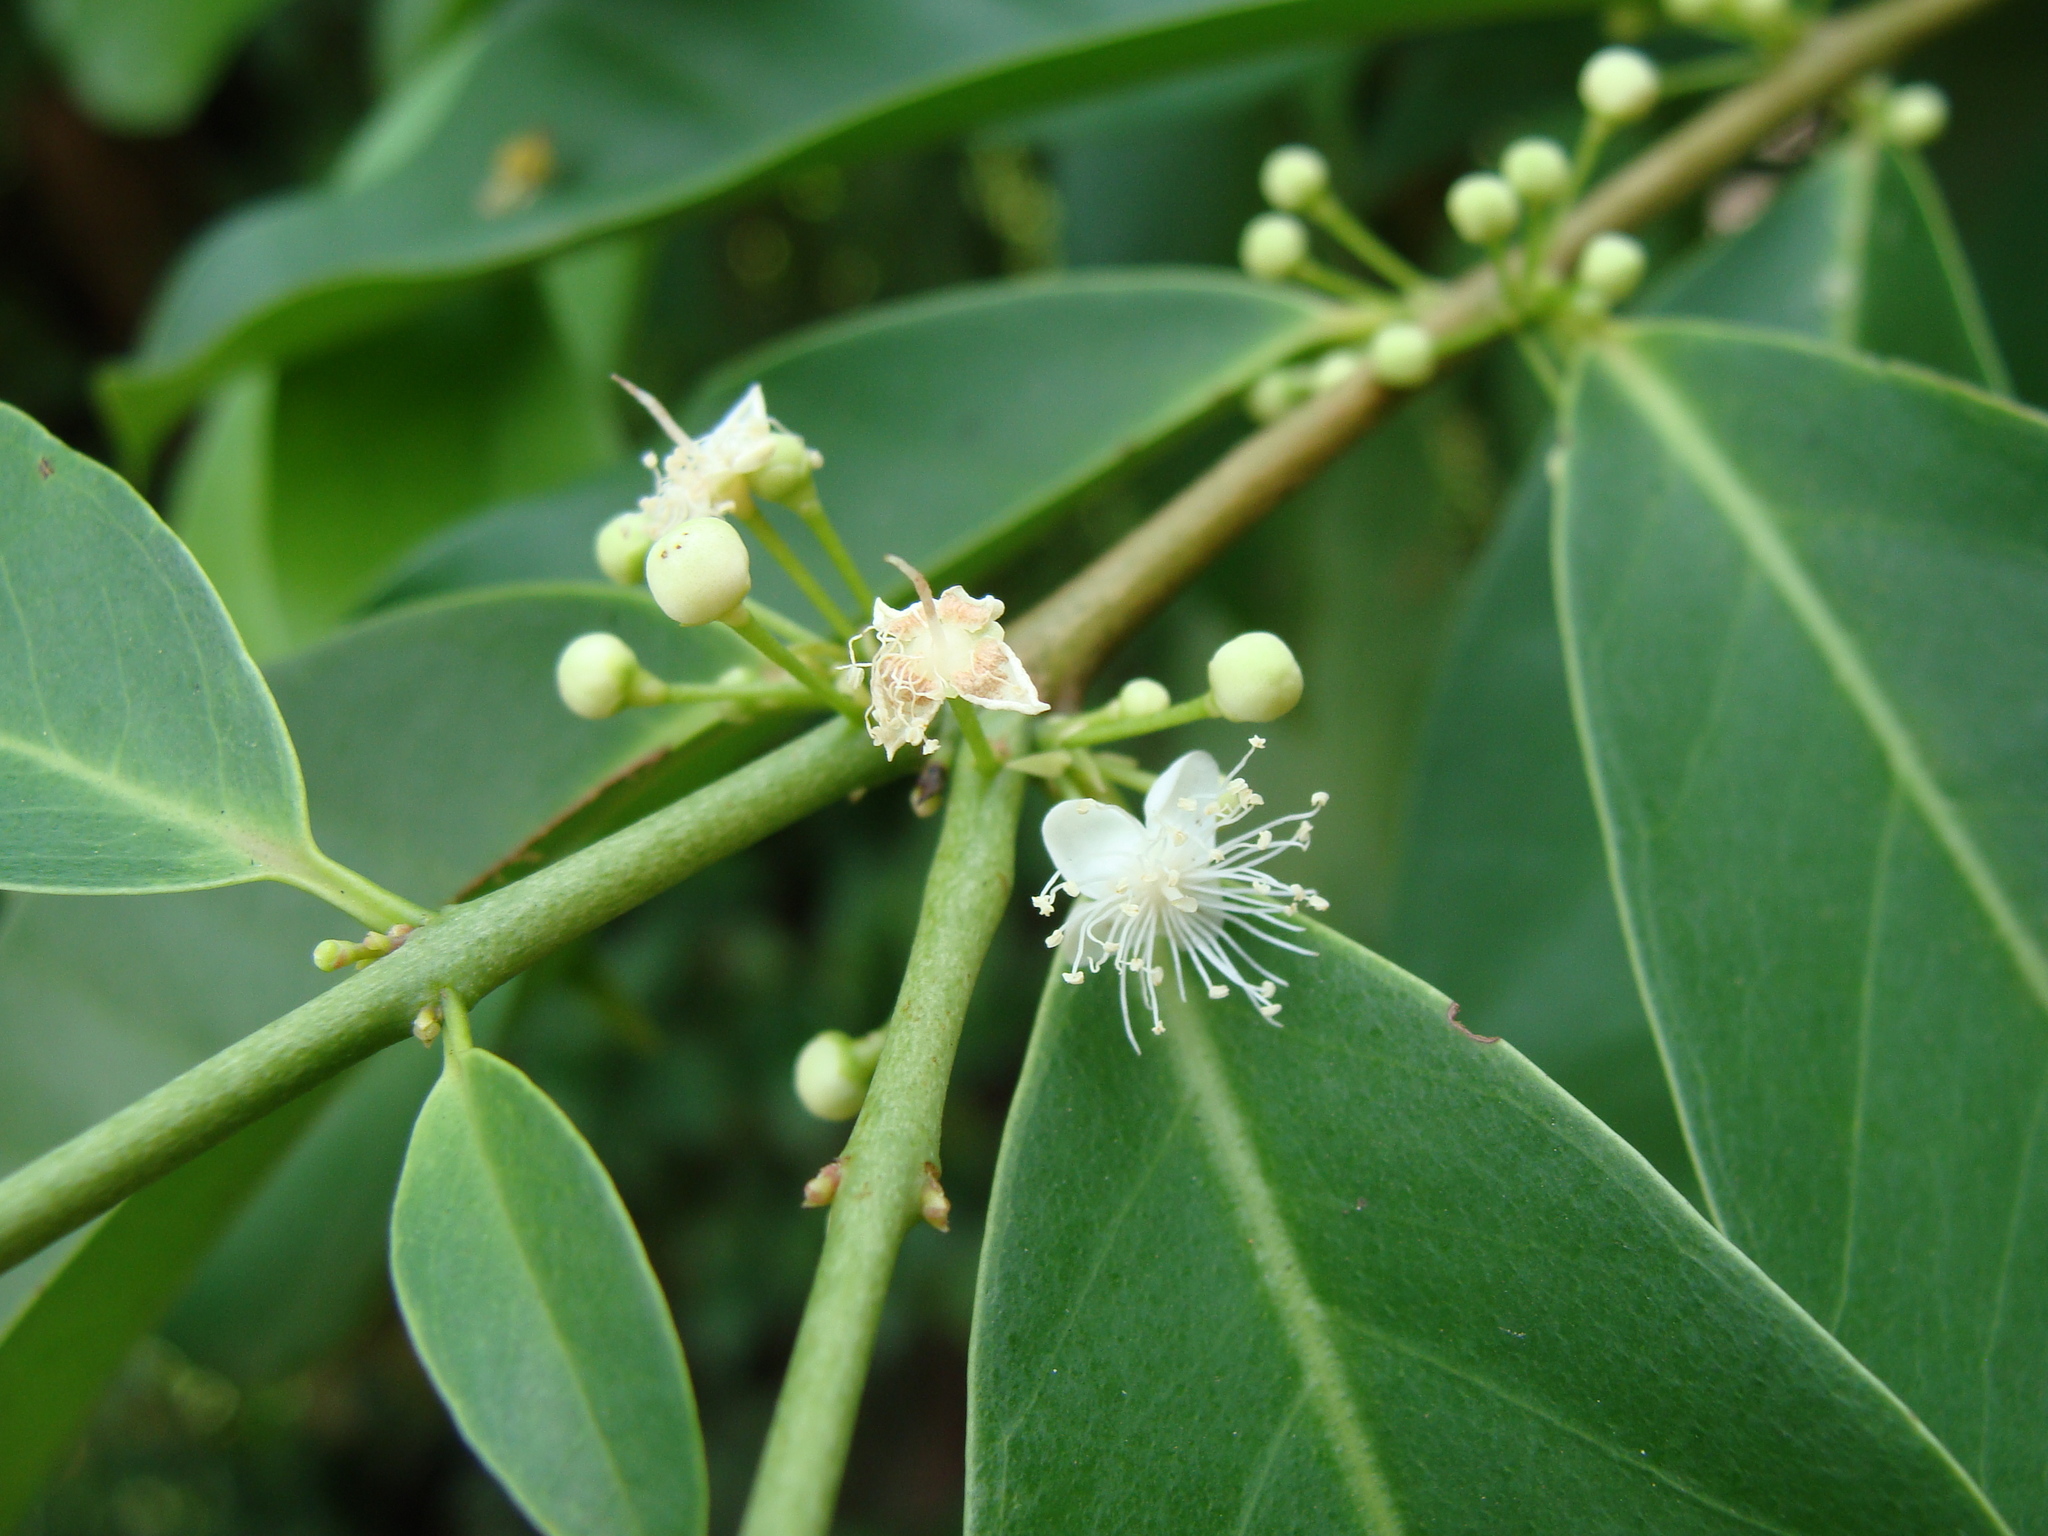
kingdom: Plantae
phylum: Tracheophyta
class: Magnoliopsida
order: Myrtales
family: Myrtaceae
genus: Eugenia
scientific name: Eugenia choapamensis
